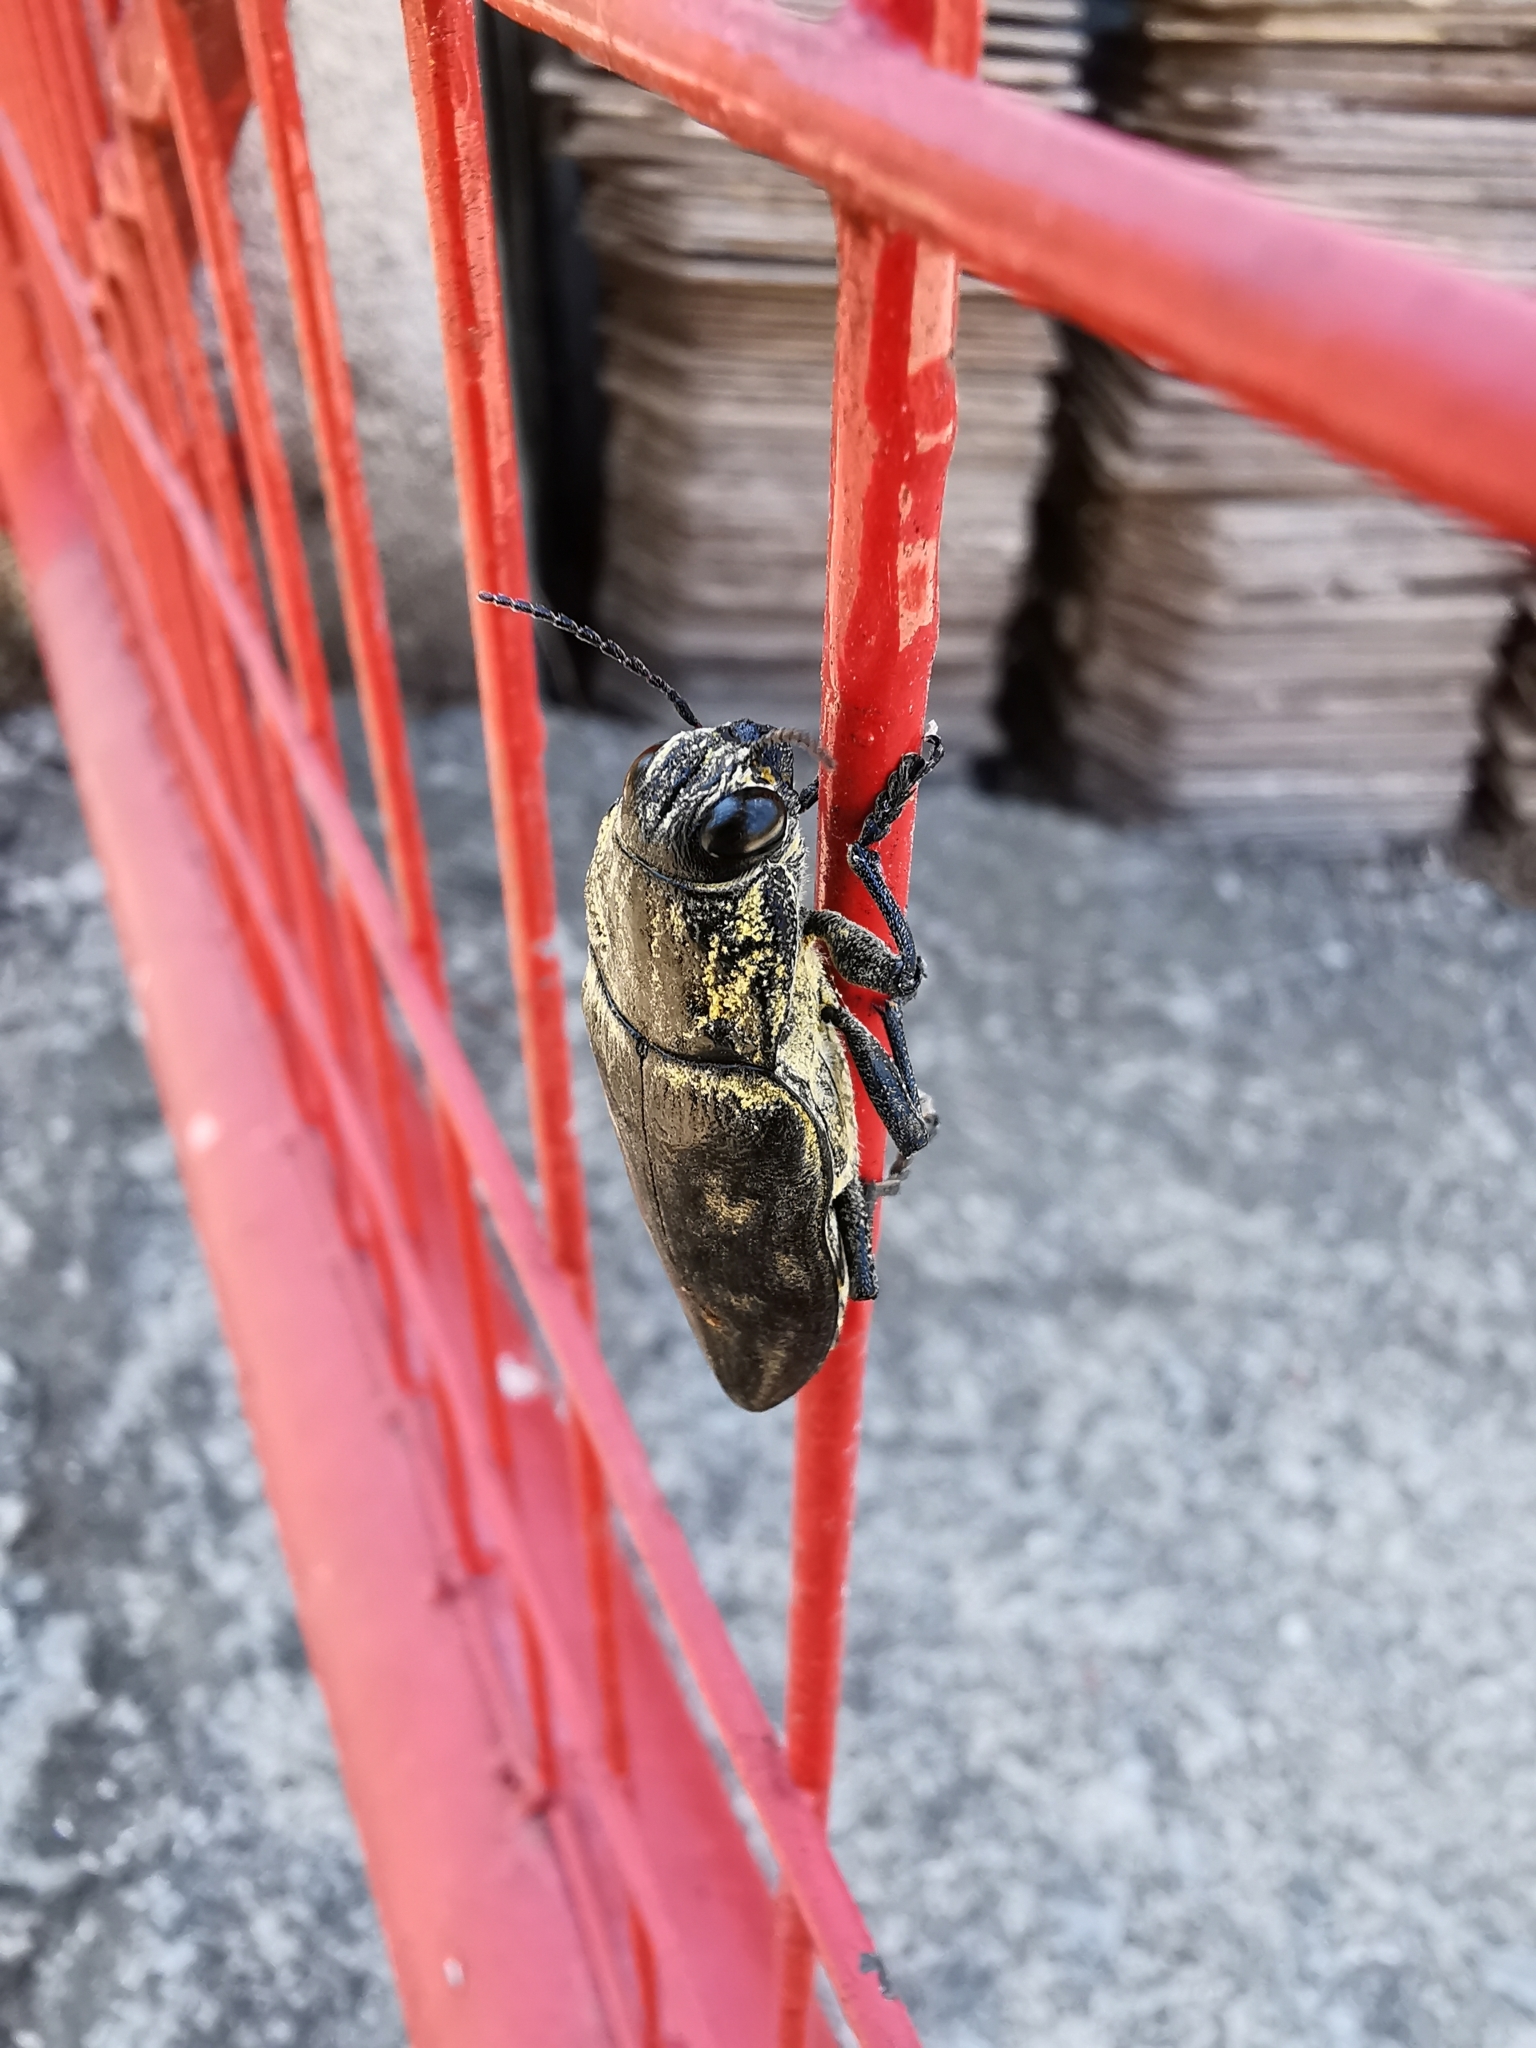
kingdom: Animalia
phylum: Arthropoda
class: Insecta
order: Coleoptera
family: Buprestidae
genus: Chalcophora
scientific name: Chalcophora detrita
